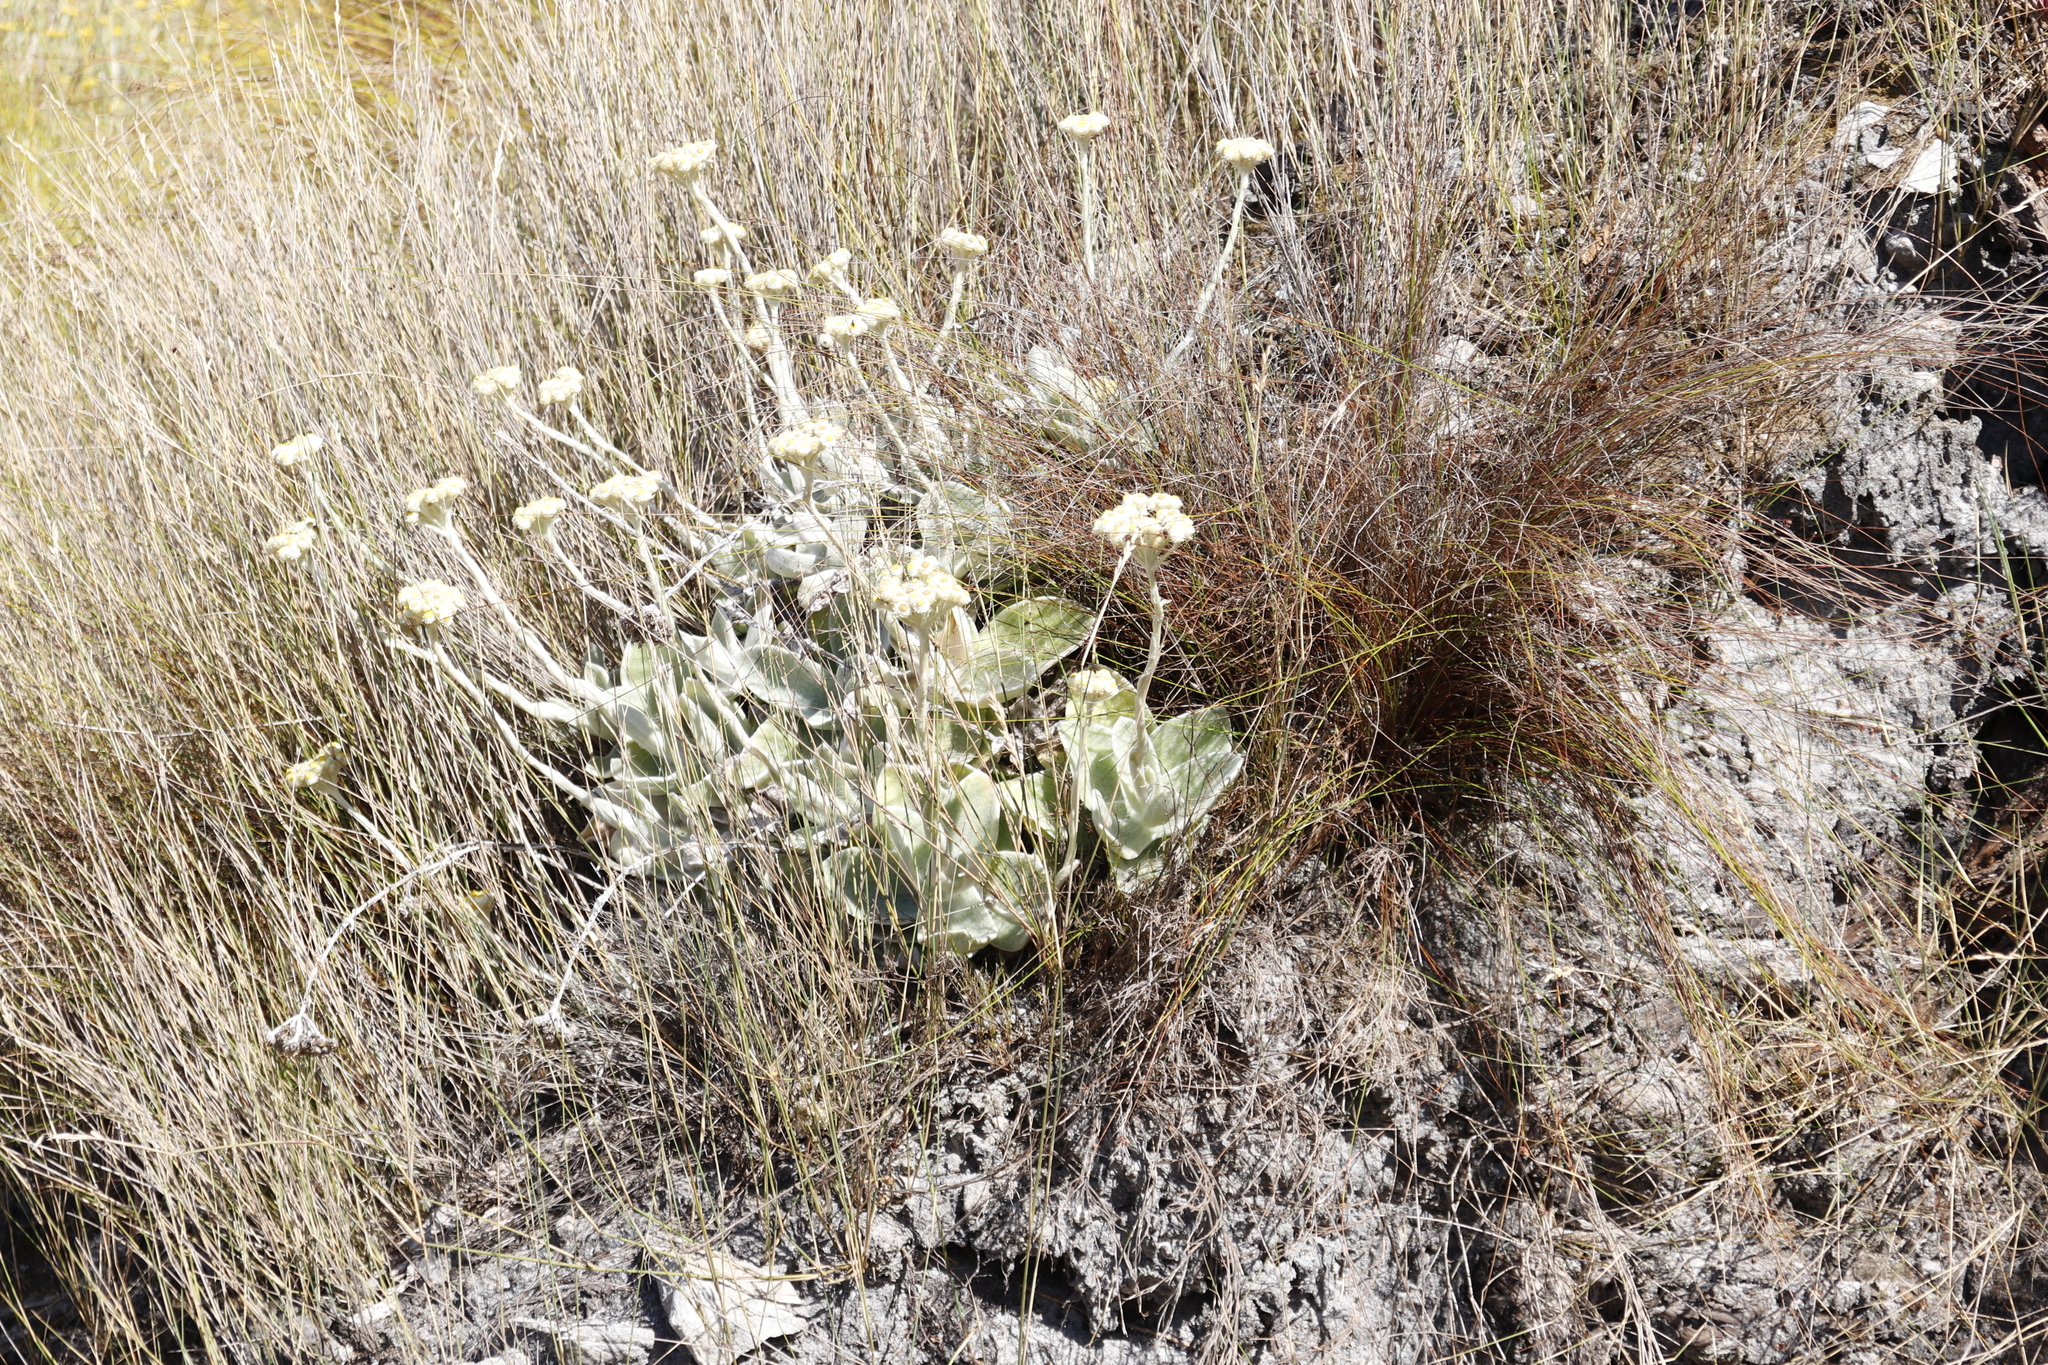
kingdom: Plantae
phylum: Tracheophyta
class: Magnoliopsida
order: Asterales
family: Asteraceae
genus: Helichrysum
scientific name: Helichrysum grandiflorum
